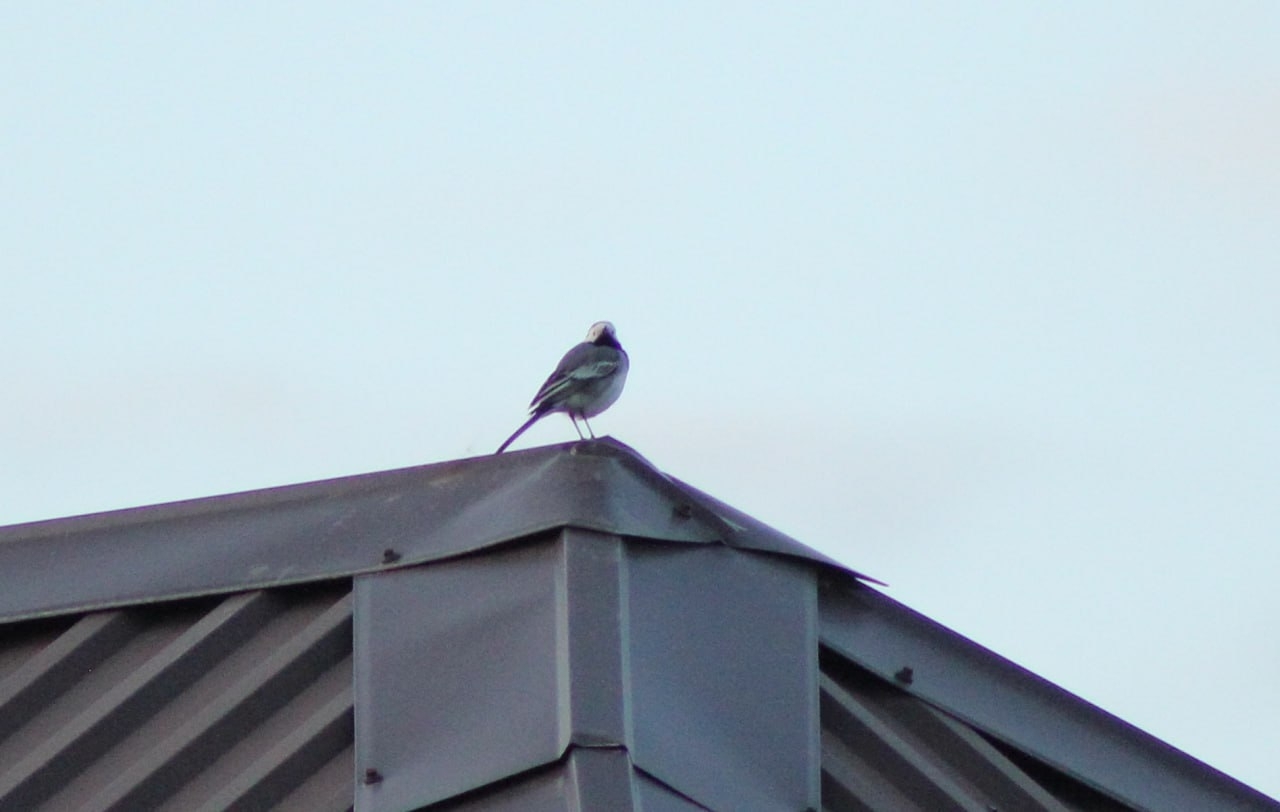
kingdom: Animalia
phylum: Chordata
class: Aves
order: Passeriformes
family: Motacillidae
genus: Motacilla
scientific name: Motacilla alba
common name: White wagtail
